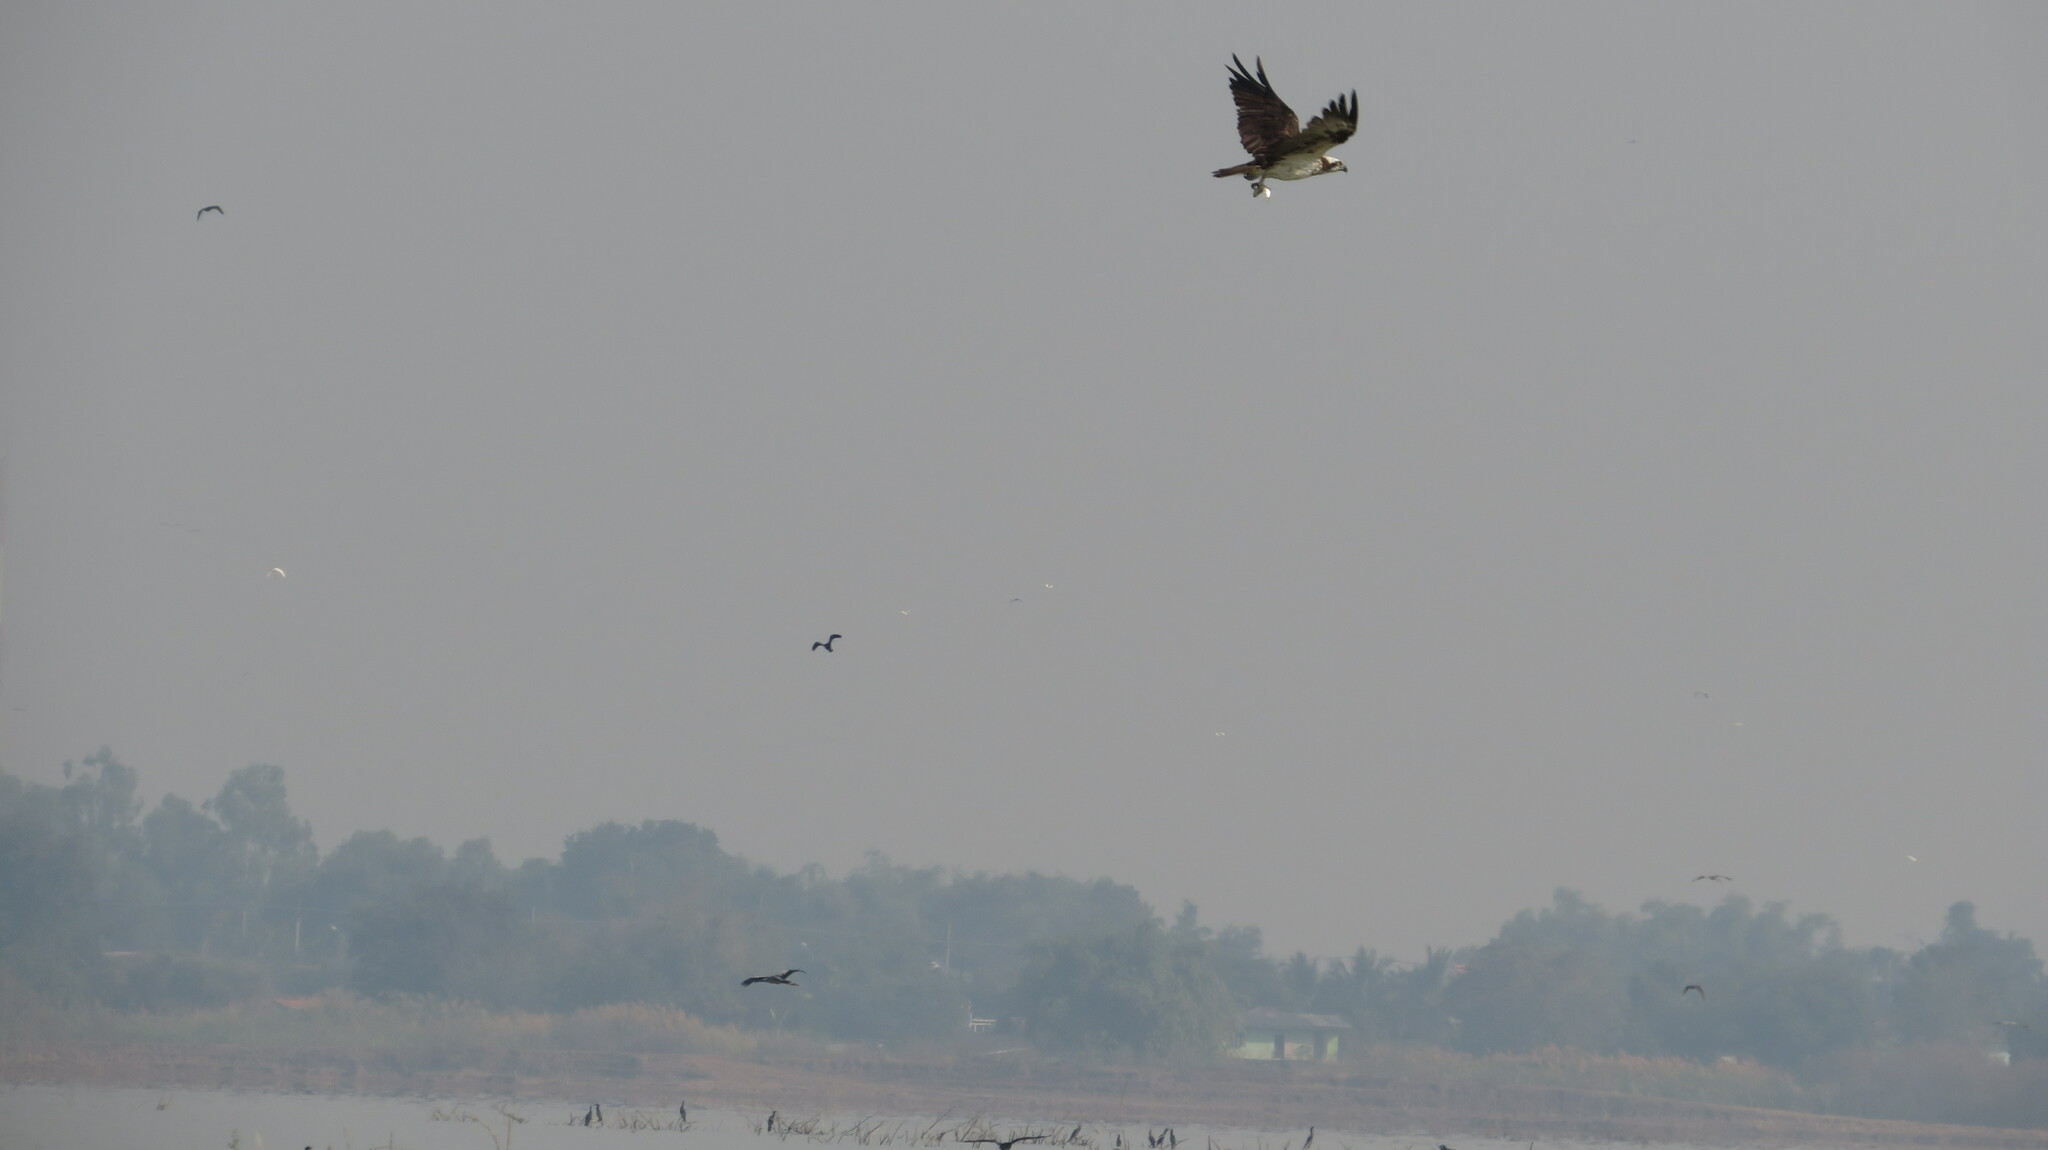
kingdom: Animalia
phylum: Chordata
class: Aves
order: Accipitriformes
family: Pandionidae
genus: Pandion
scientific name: Pandion haliaetus
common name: Osprey
